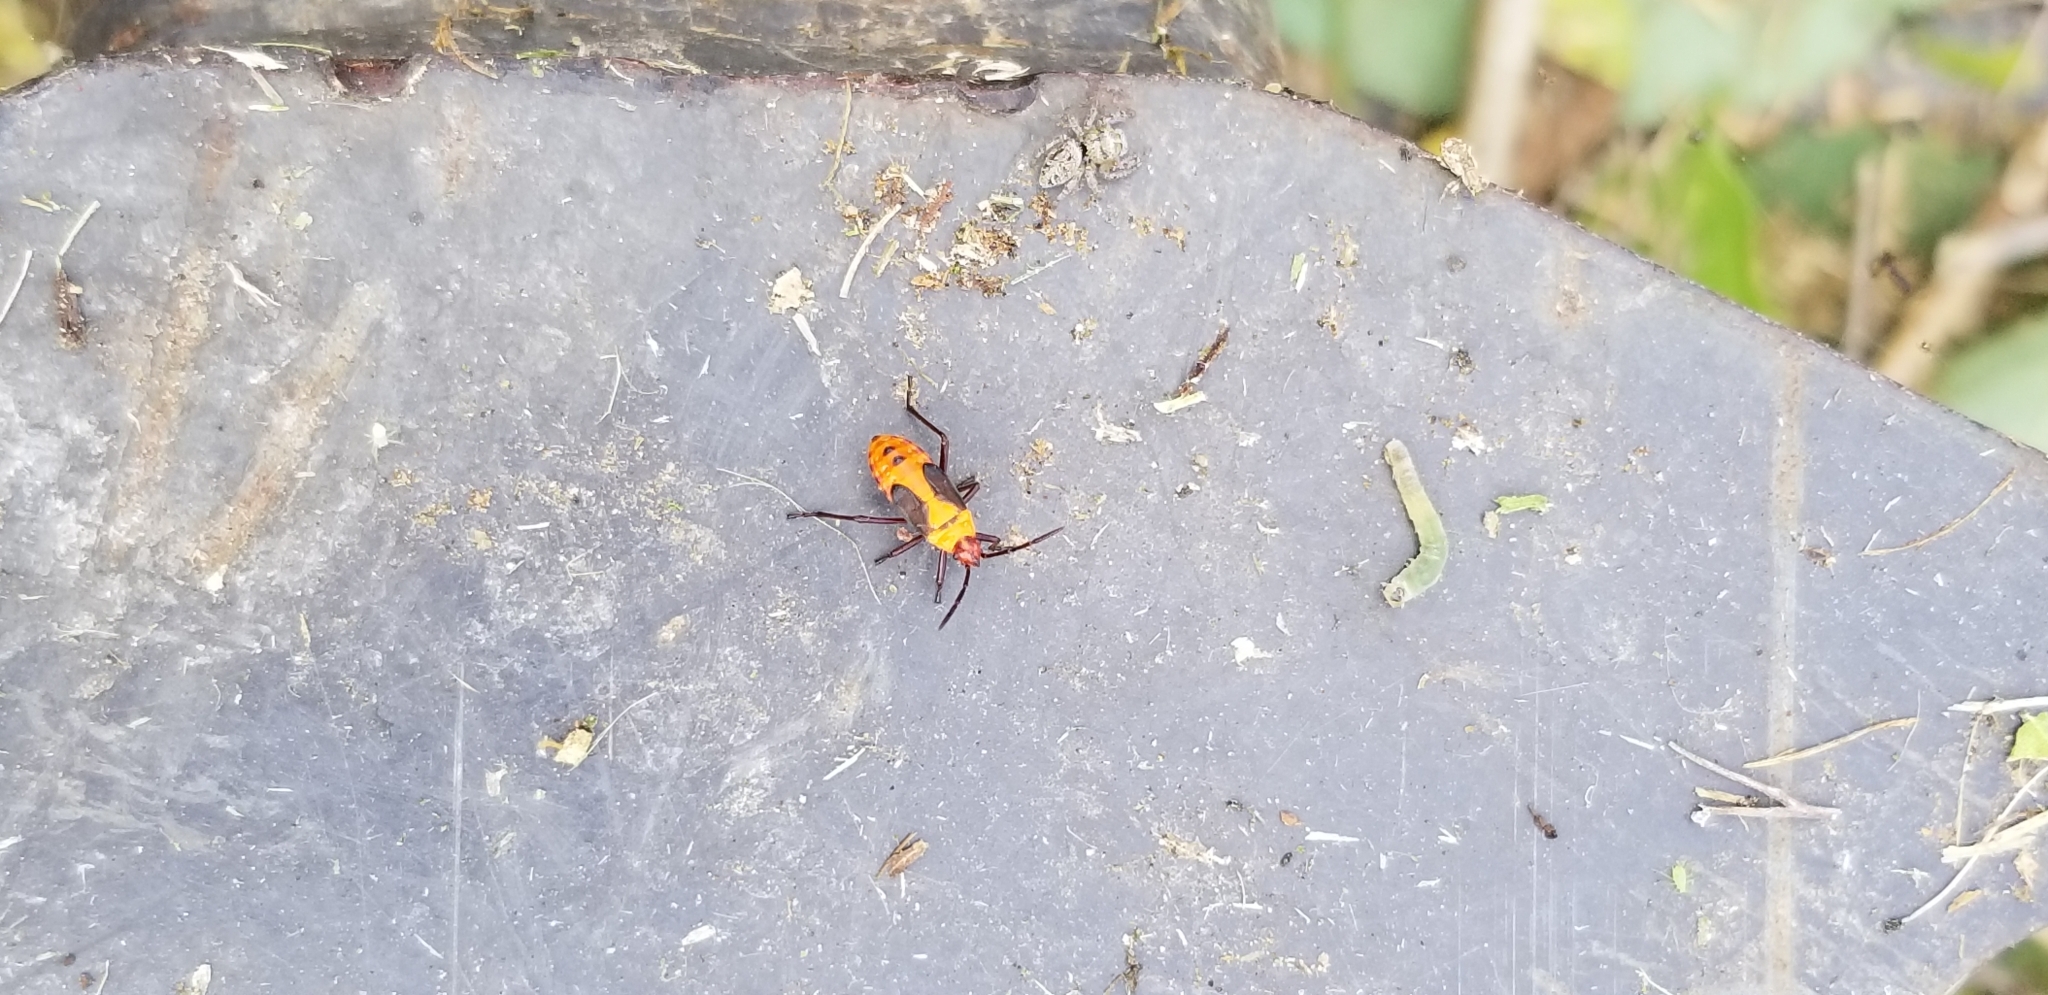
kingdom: Animalia
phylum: Arthropoda
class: Insecta
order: Hemiptera
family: Lygaeidae
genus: Oncopeltus
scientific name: Oncopeltus fasciatus
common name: Large milkweed bug
